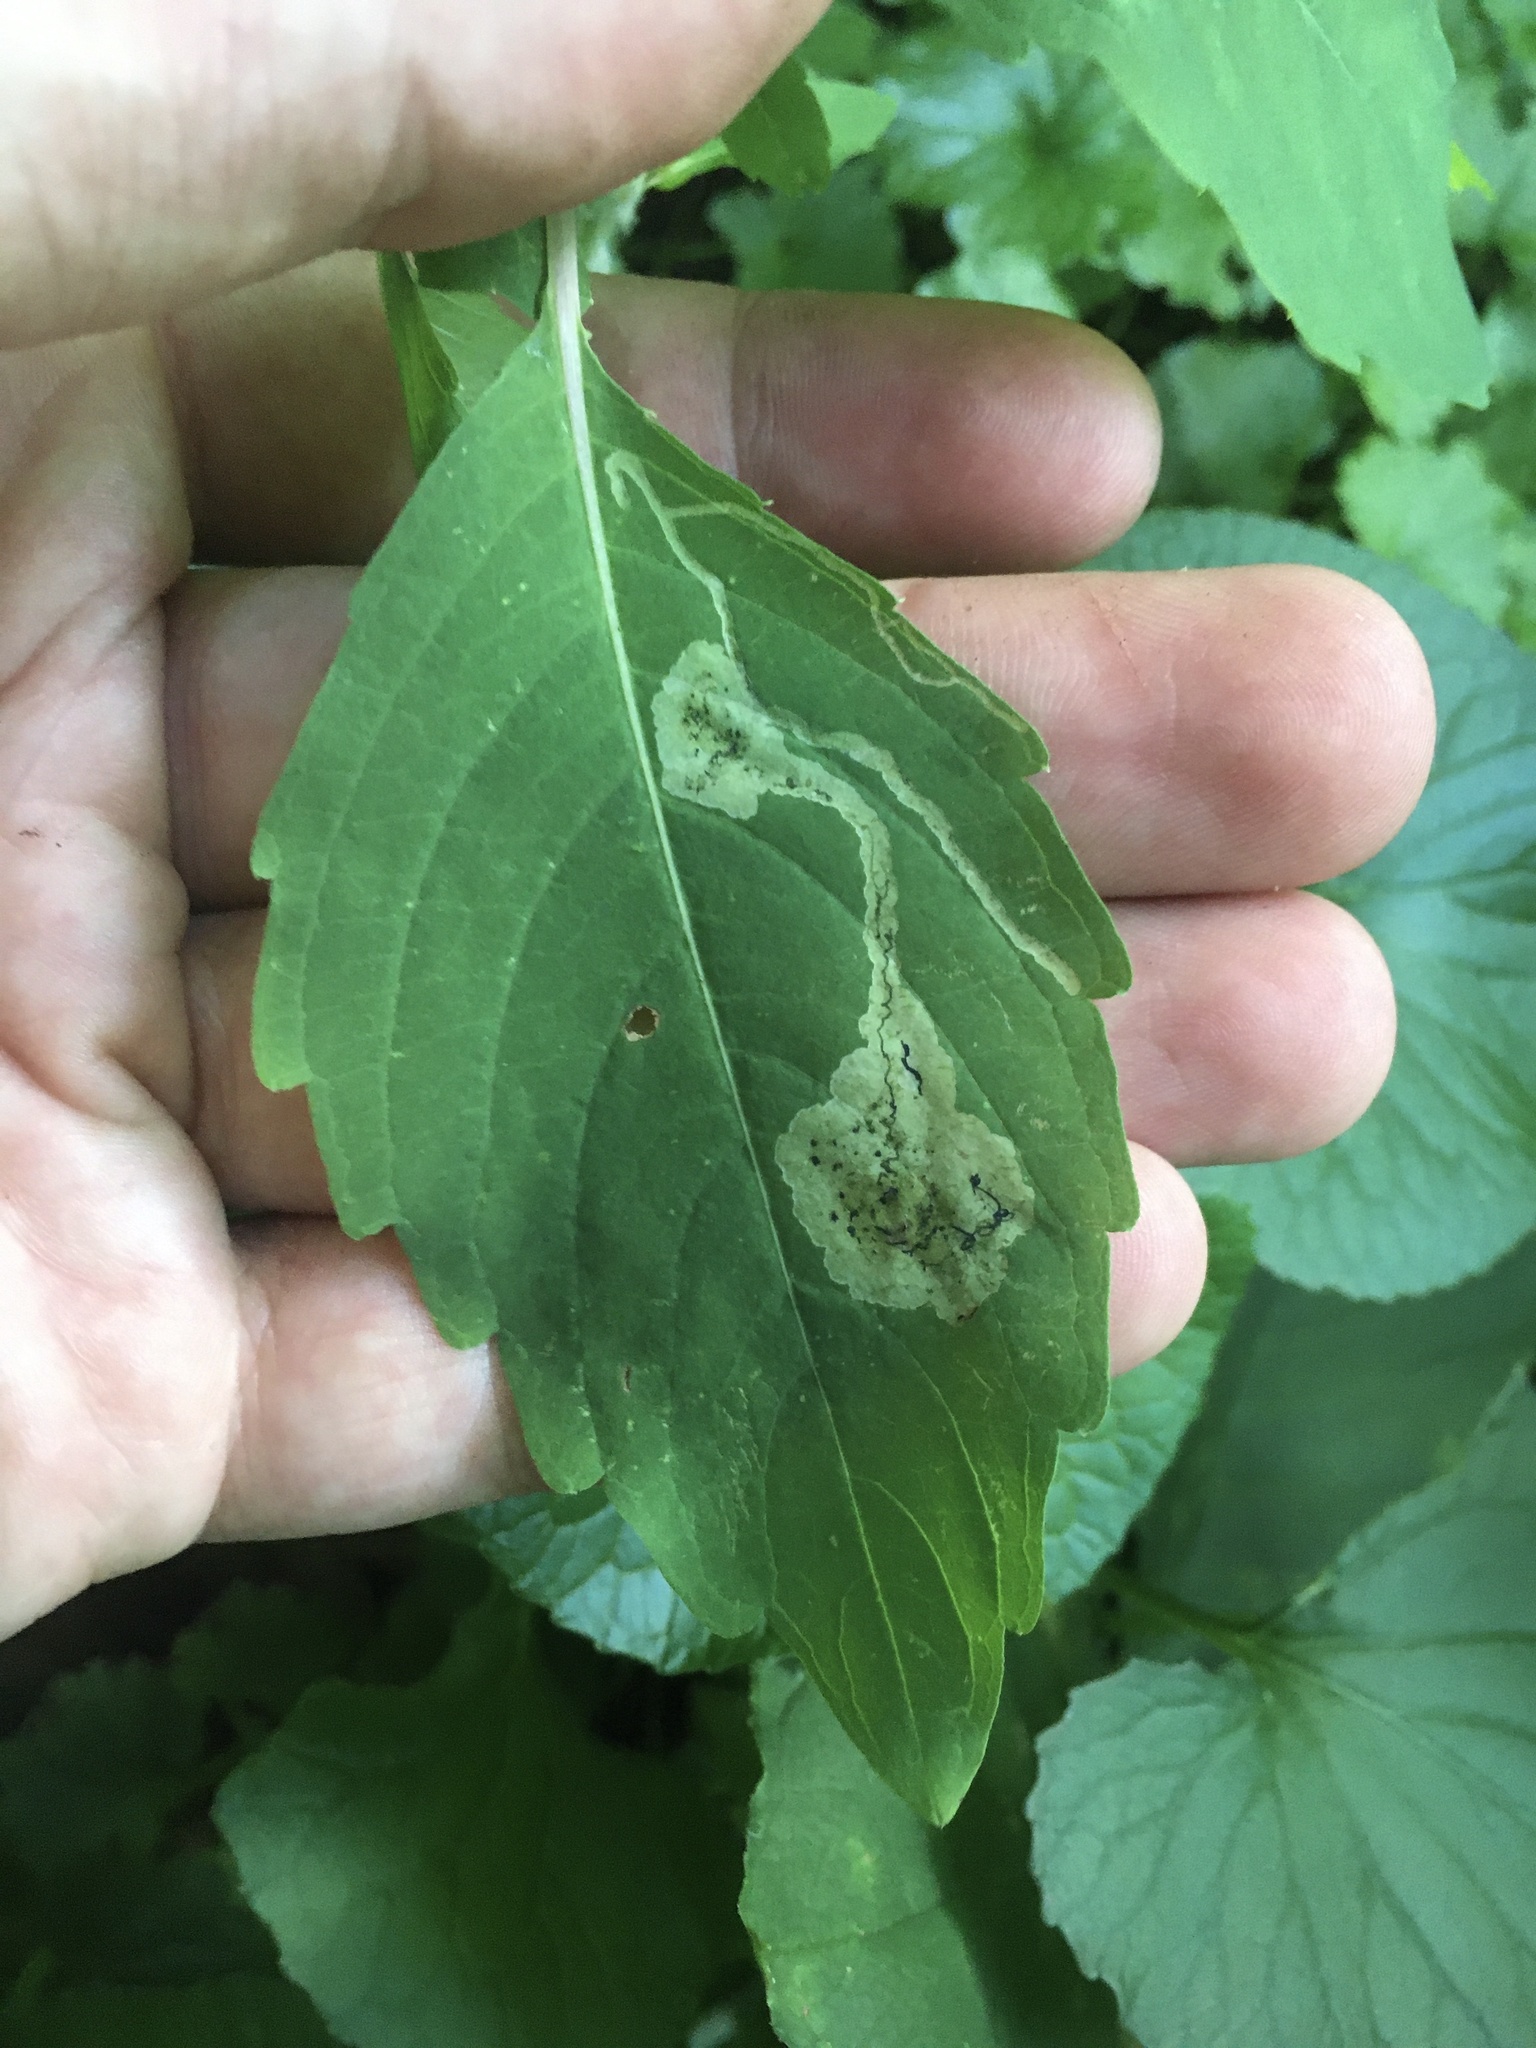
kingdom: Animalia
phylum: Arthropoda
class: Insecta
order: Diptera
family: Agromyzidae
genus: Phytoliriomyza
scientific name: Phytoliriomyza melampyga
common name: Jewelweed leaf-miner fly
